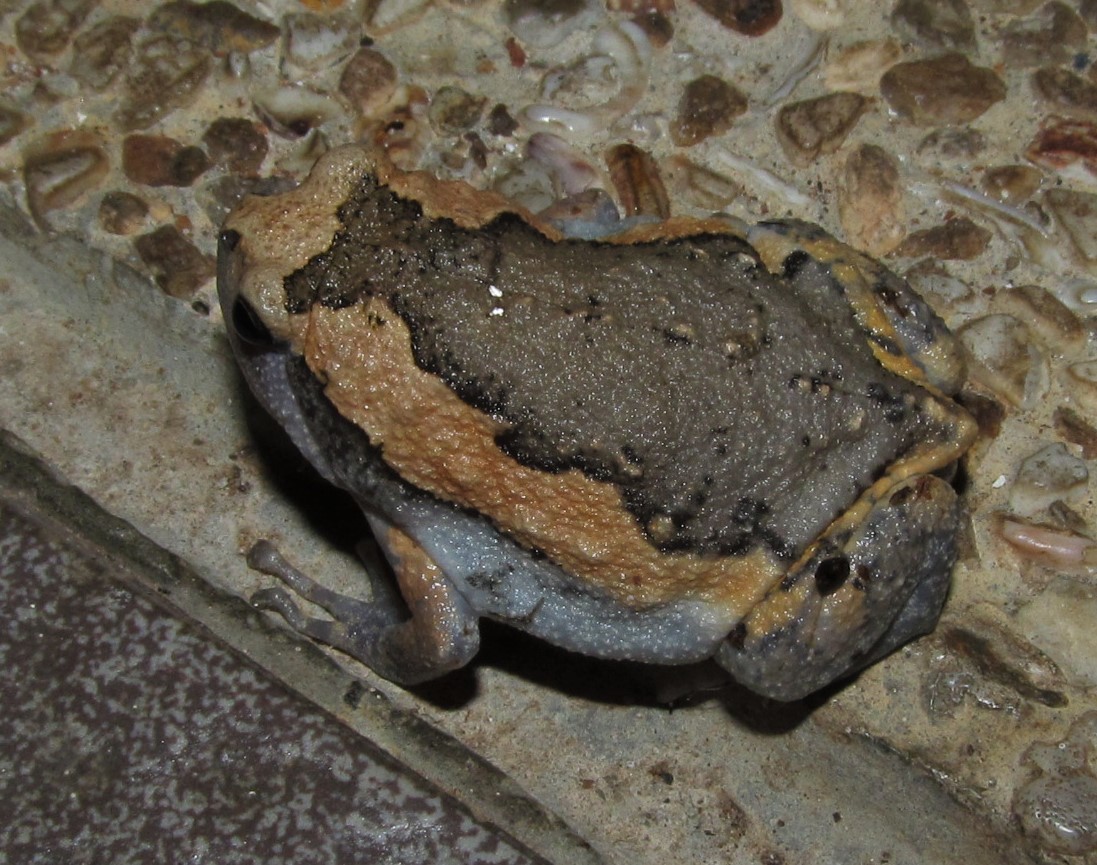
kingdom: Animalia
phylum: Chordata
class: Amphibia
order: Anura
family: Microhylidae
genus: Kaloula
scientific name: Kaloula pulchra
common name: Common,banded bullfrog
